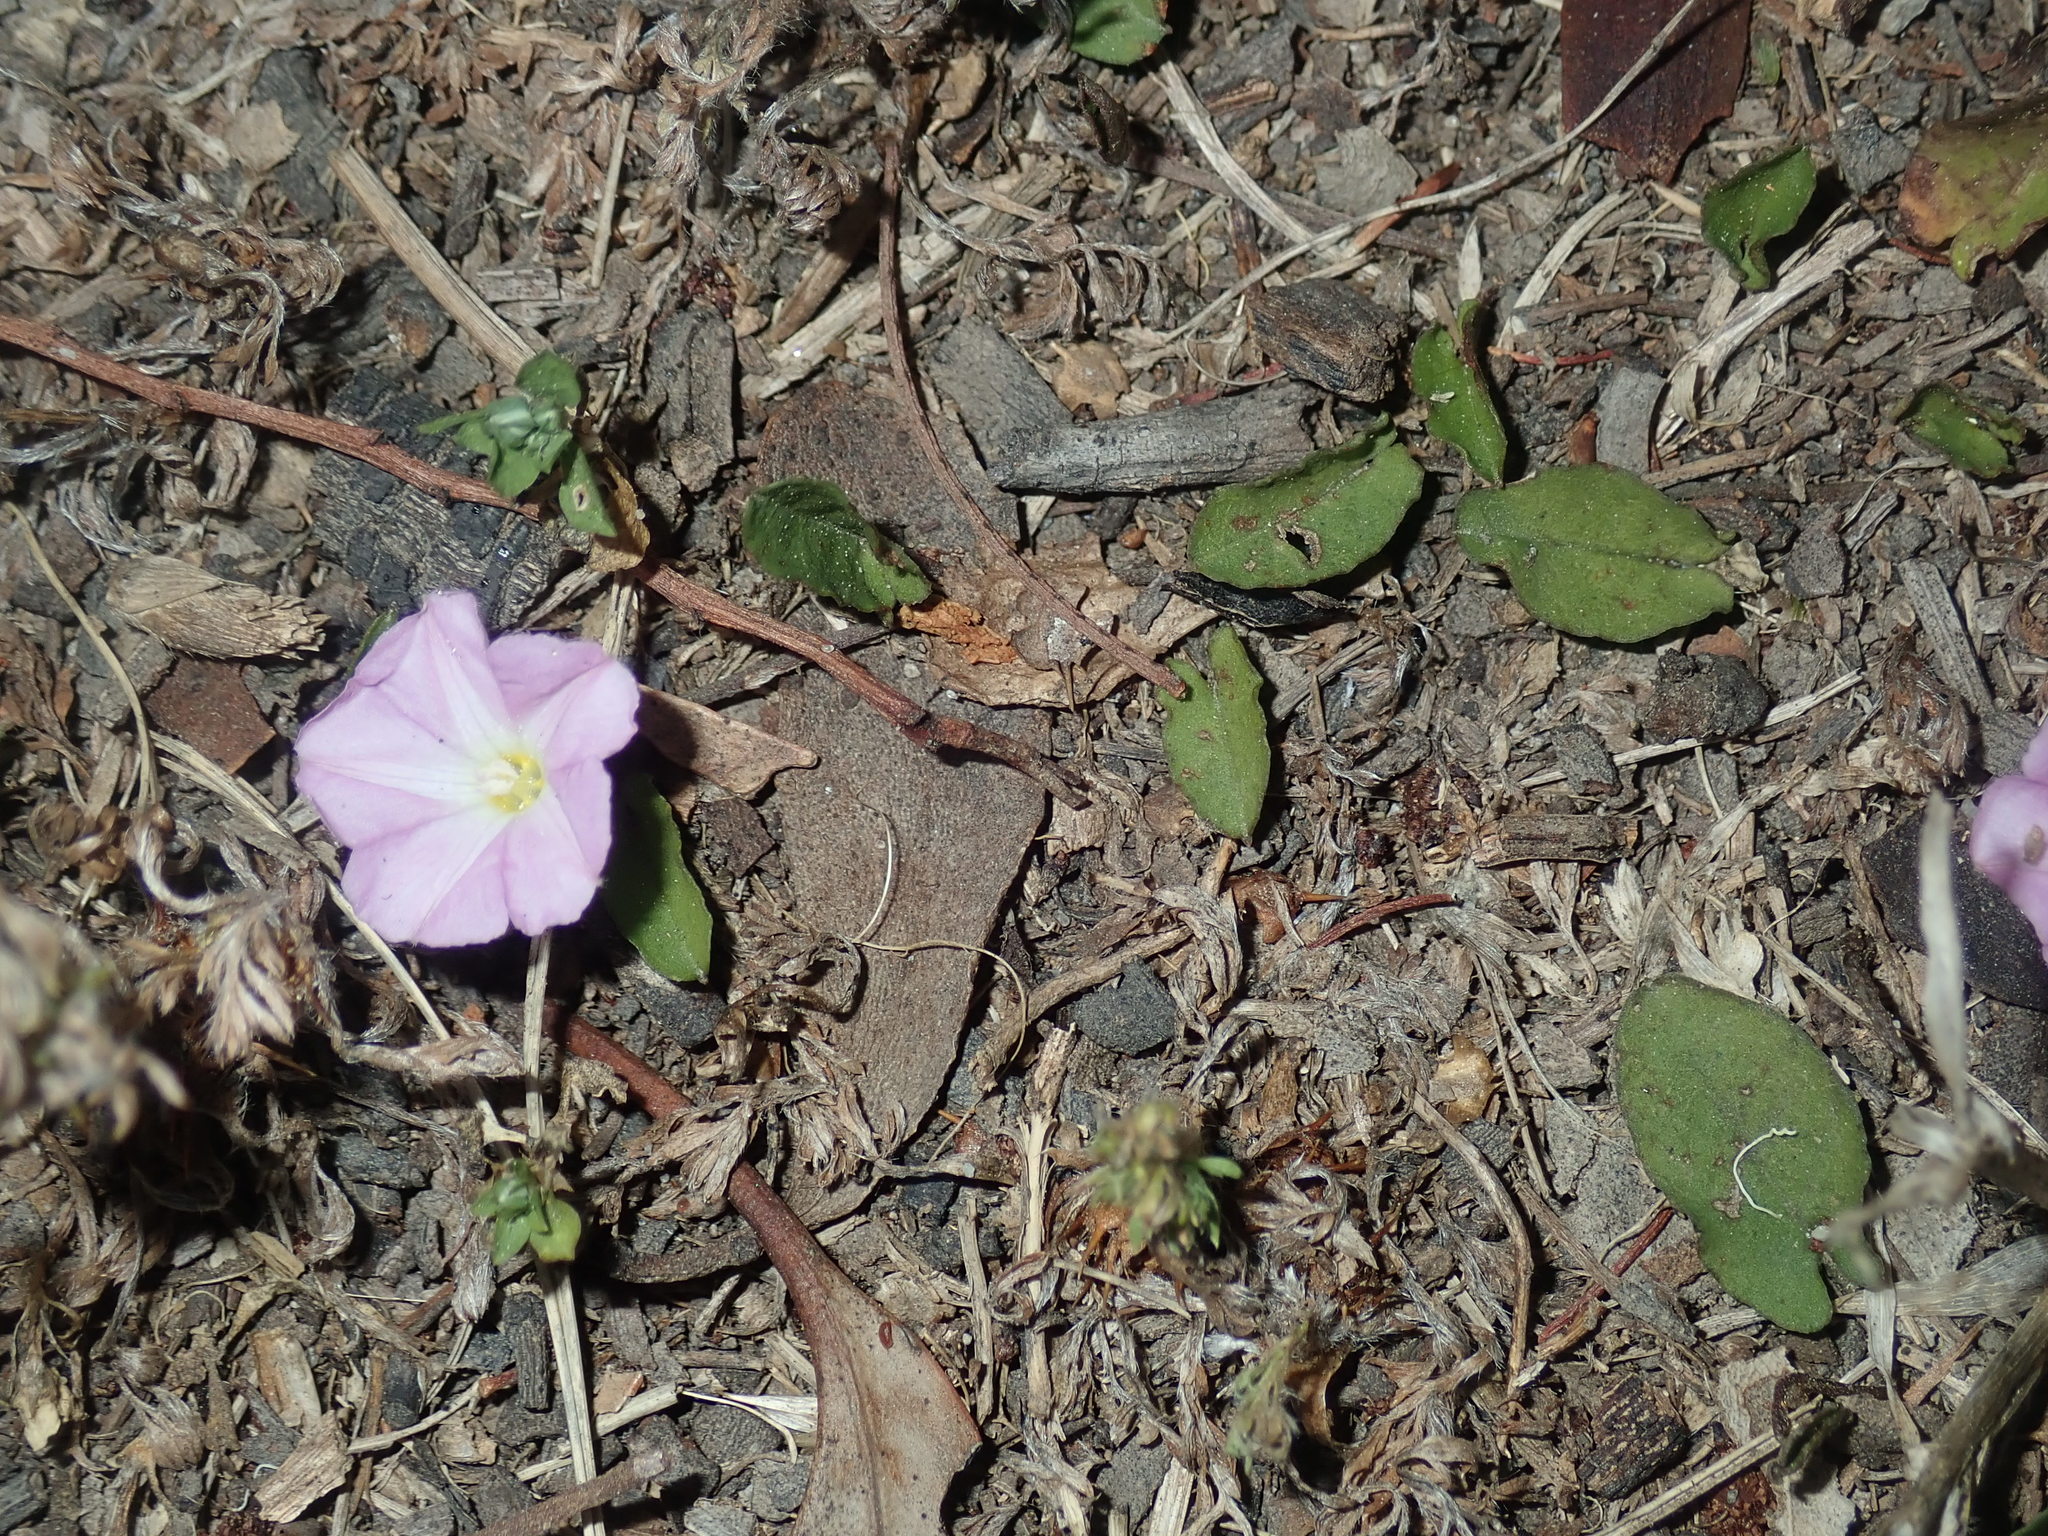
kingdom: Plantae
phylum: Tracheophyta
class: Magnoliopsida
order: Solanales
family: Convolvulaceae
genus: Polymeria
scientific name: Polymeria calycina
